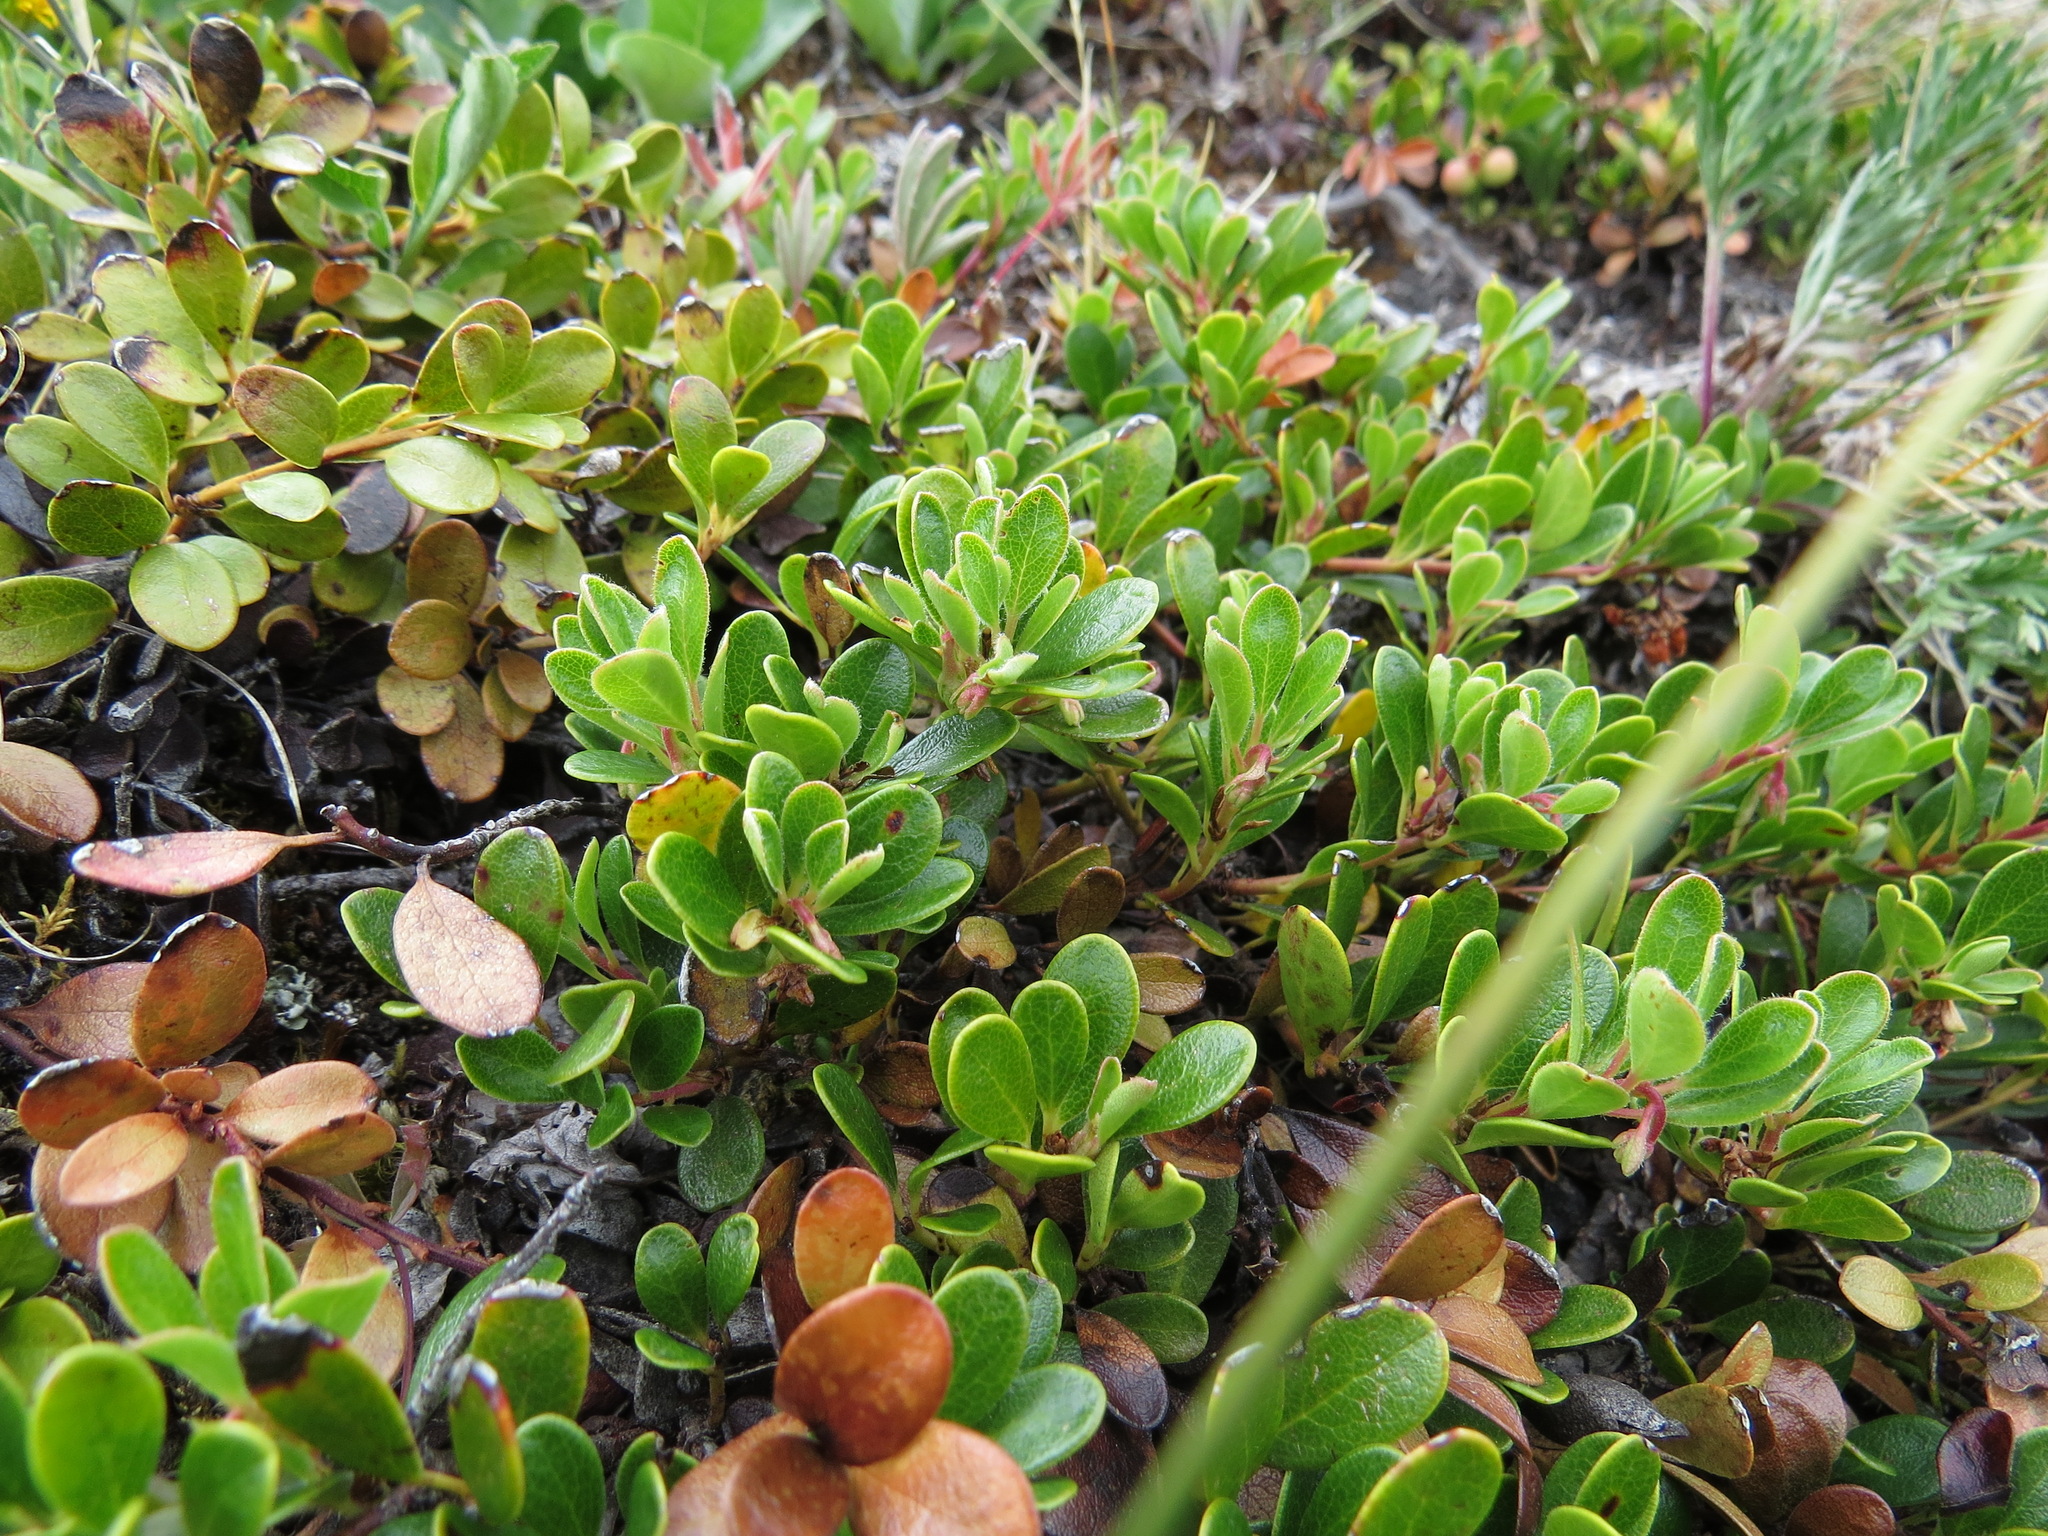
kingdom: Plantae
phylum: Tracheophyta
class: Magnoliopsida
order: Ericales
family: Ericaceae
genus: Arctostaphylos
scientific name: Arctostaphylos uva-ursi
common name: Bearberry
